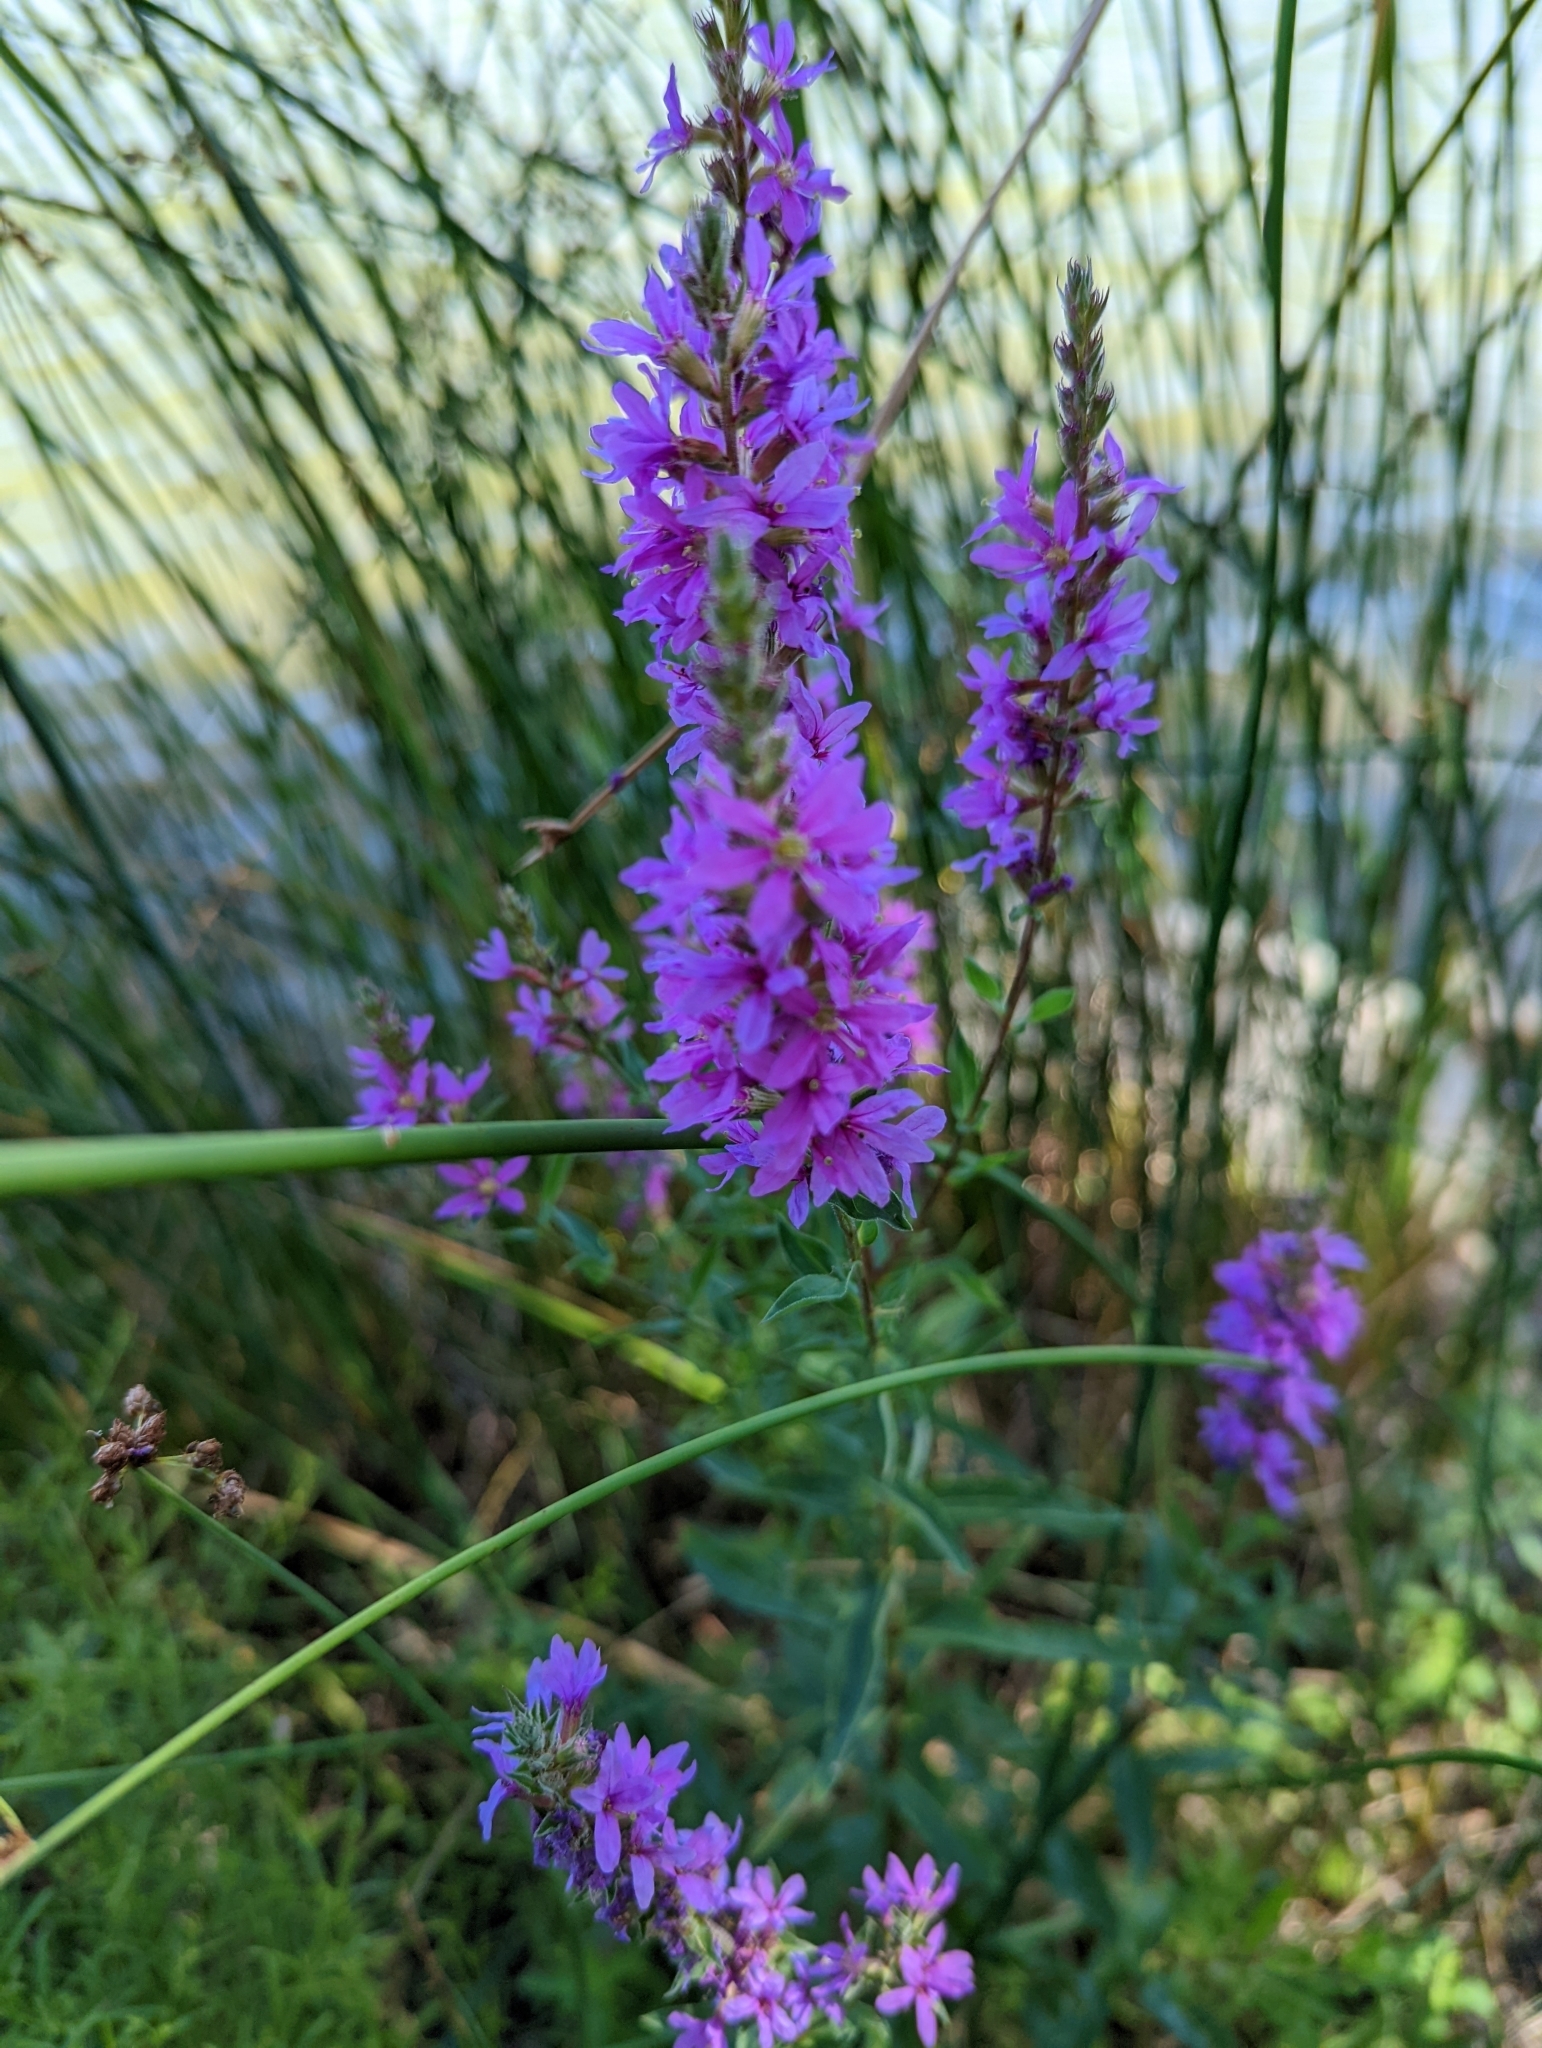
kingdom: Plantae
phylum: Tracheophyta
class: Magnoliopsida
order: Myrtales
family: Lythraceae
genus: Lythrum
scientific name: Lythrum salicaria
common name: Purple loosestrife
